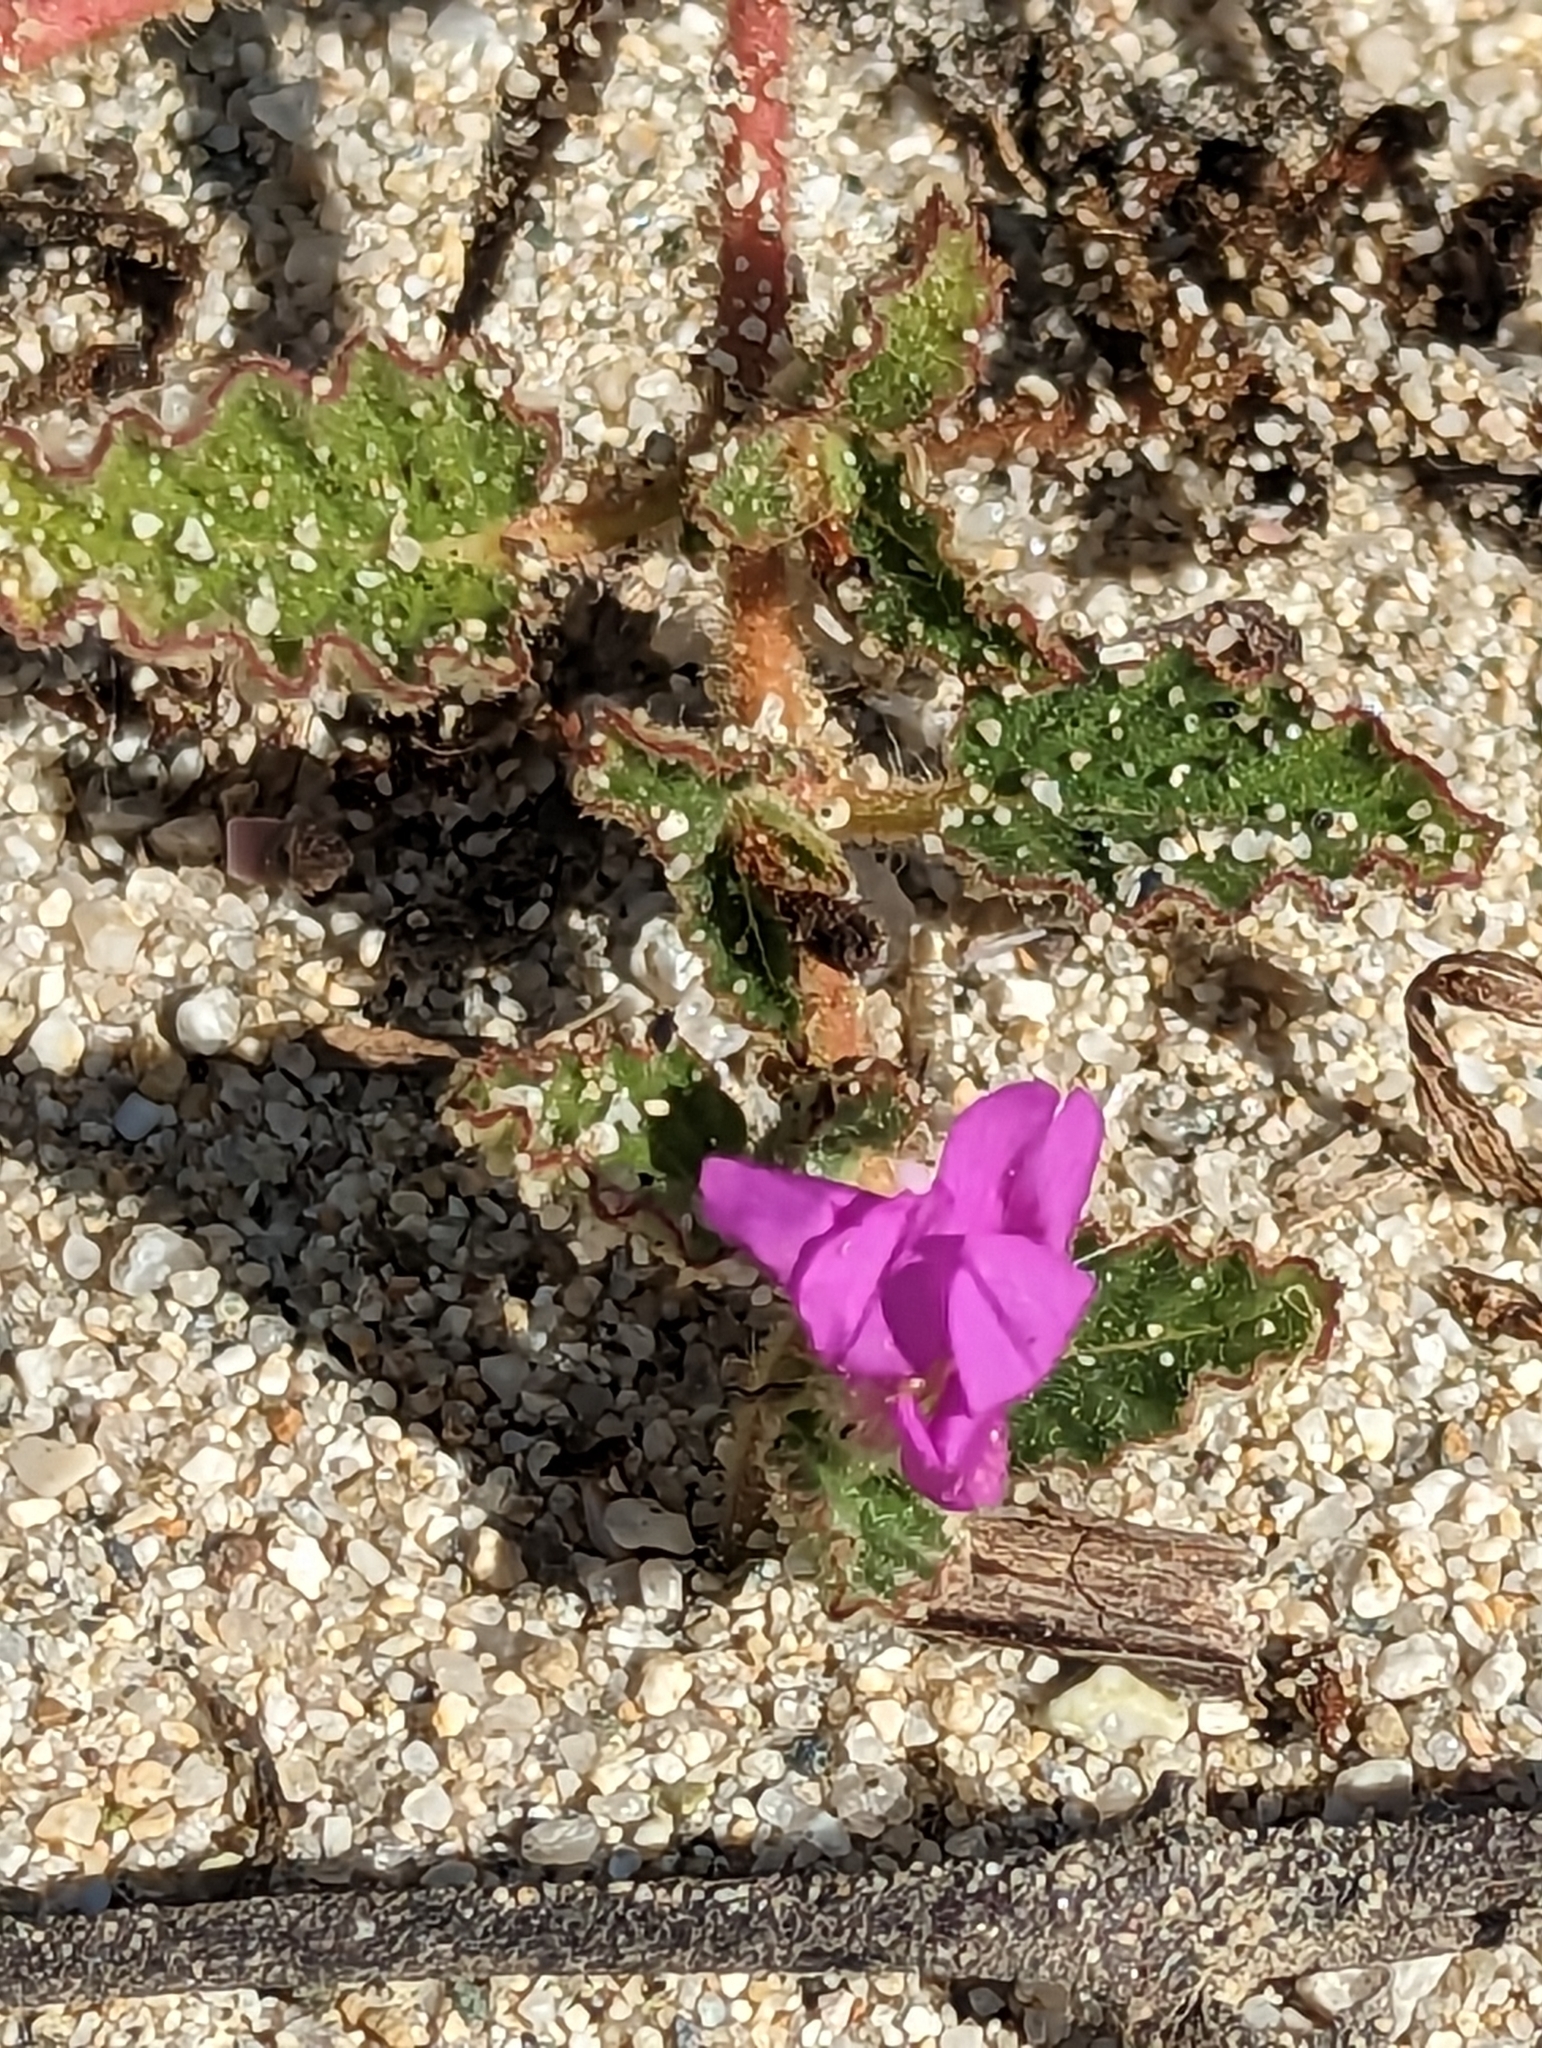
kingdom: Plantae
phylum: Tracheophyta
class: Magnoliopsida
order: Caryophyllales
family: Nyctaginaceae
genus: Okenia
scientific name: Okenia hypogaea
